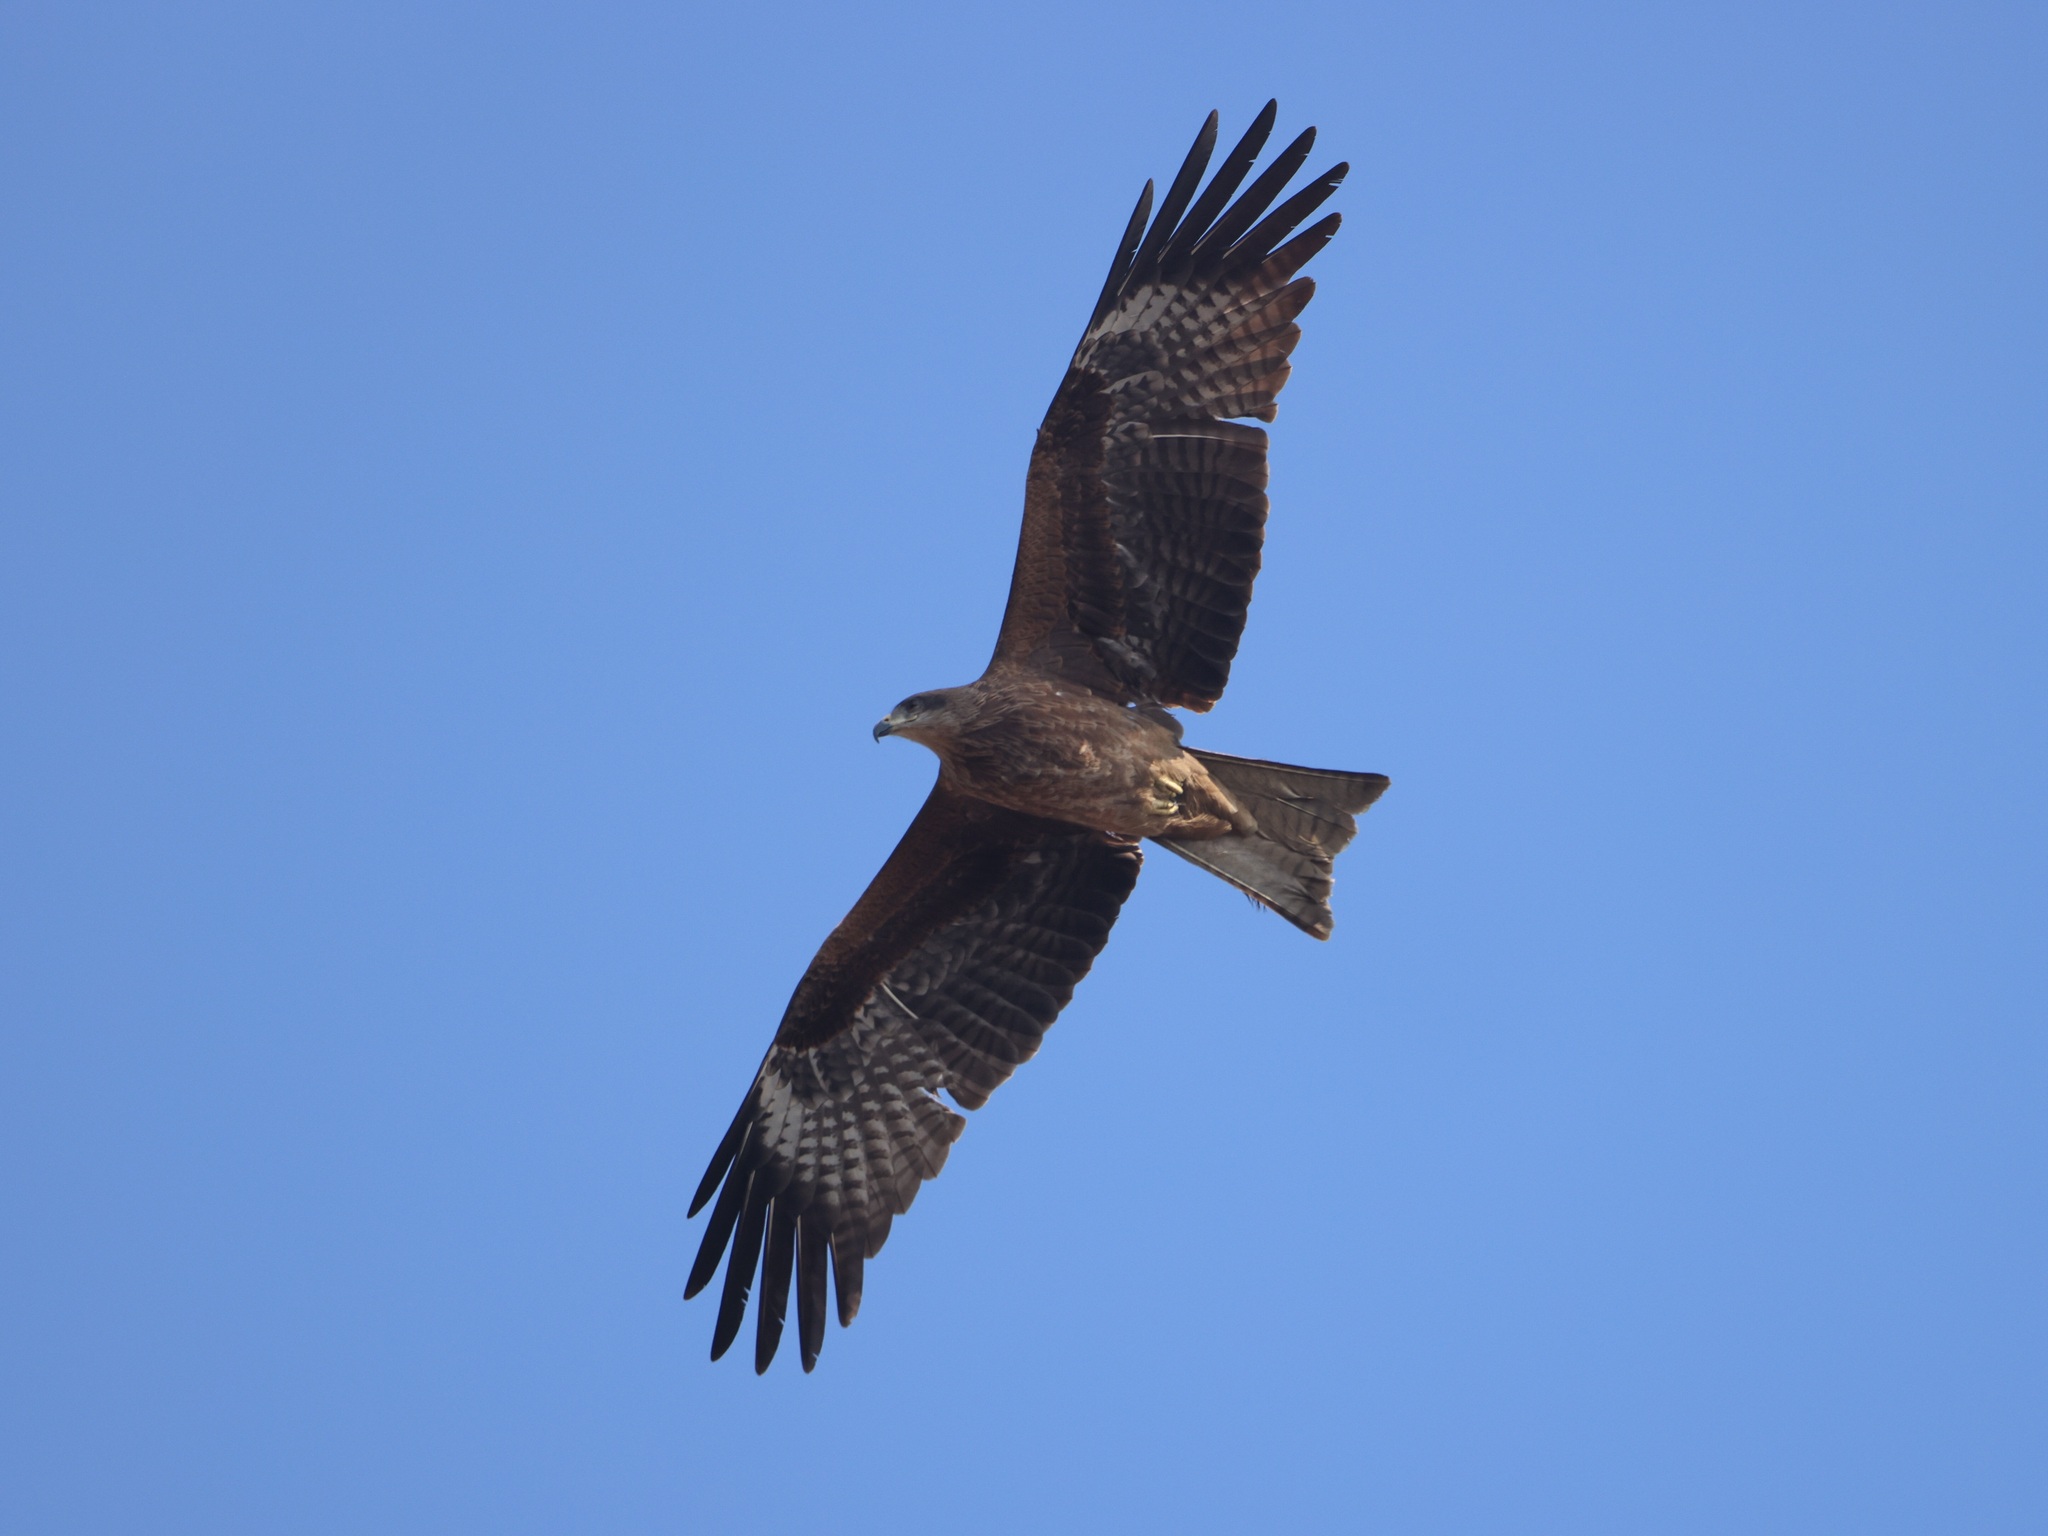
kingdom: Animalia
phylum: Chordata
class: Aves
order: Accipitriformes
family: Accipitridae
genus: Milvus
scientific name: Milvus migrans
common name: Black kite
